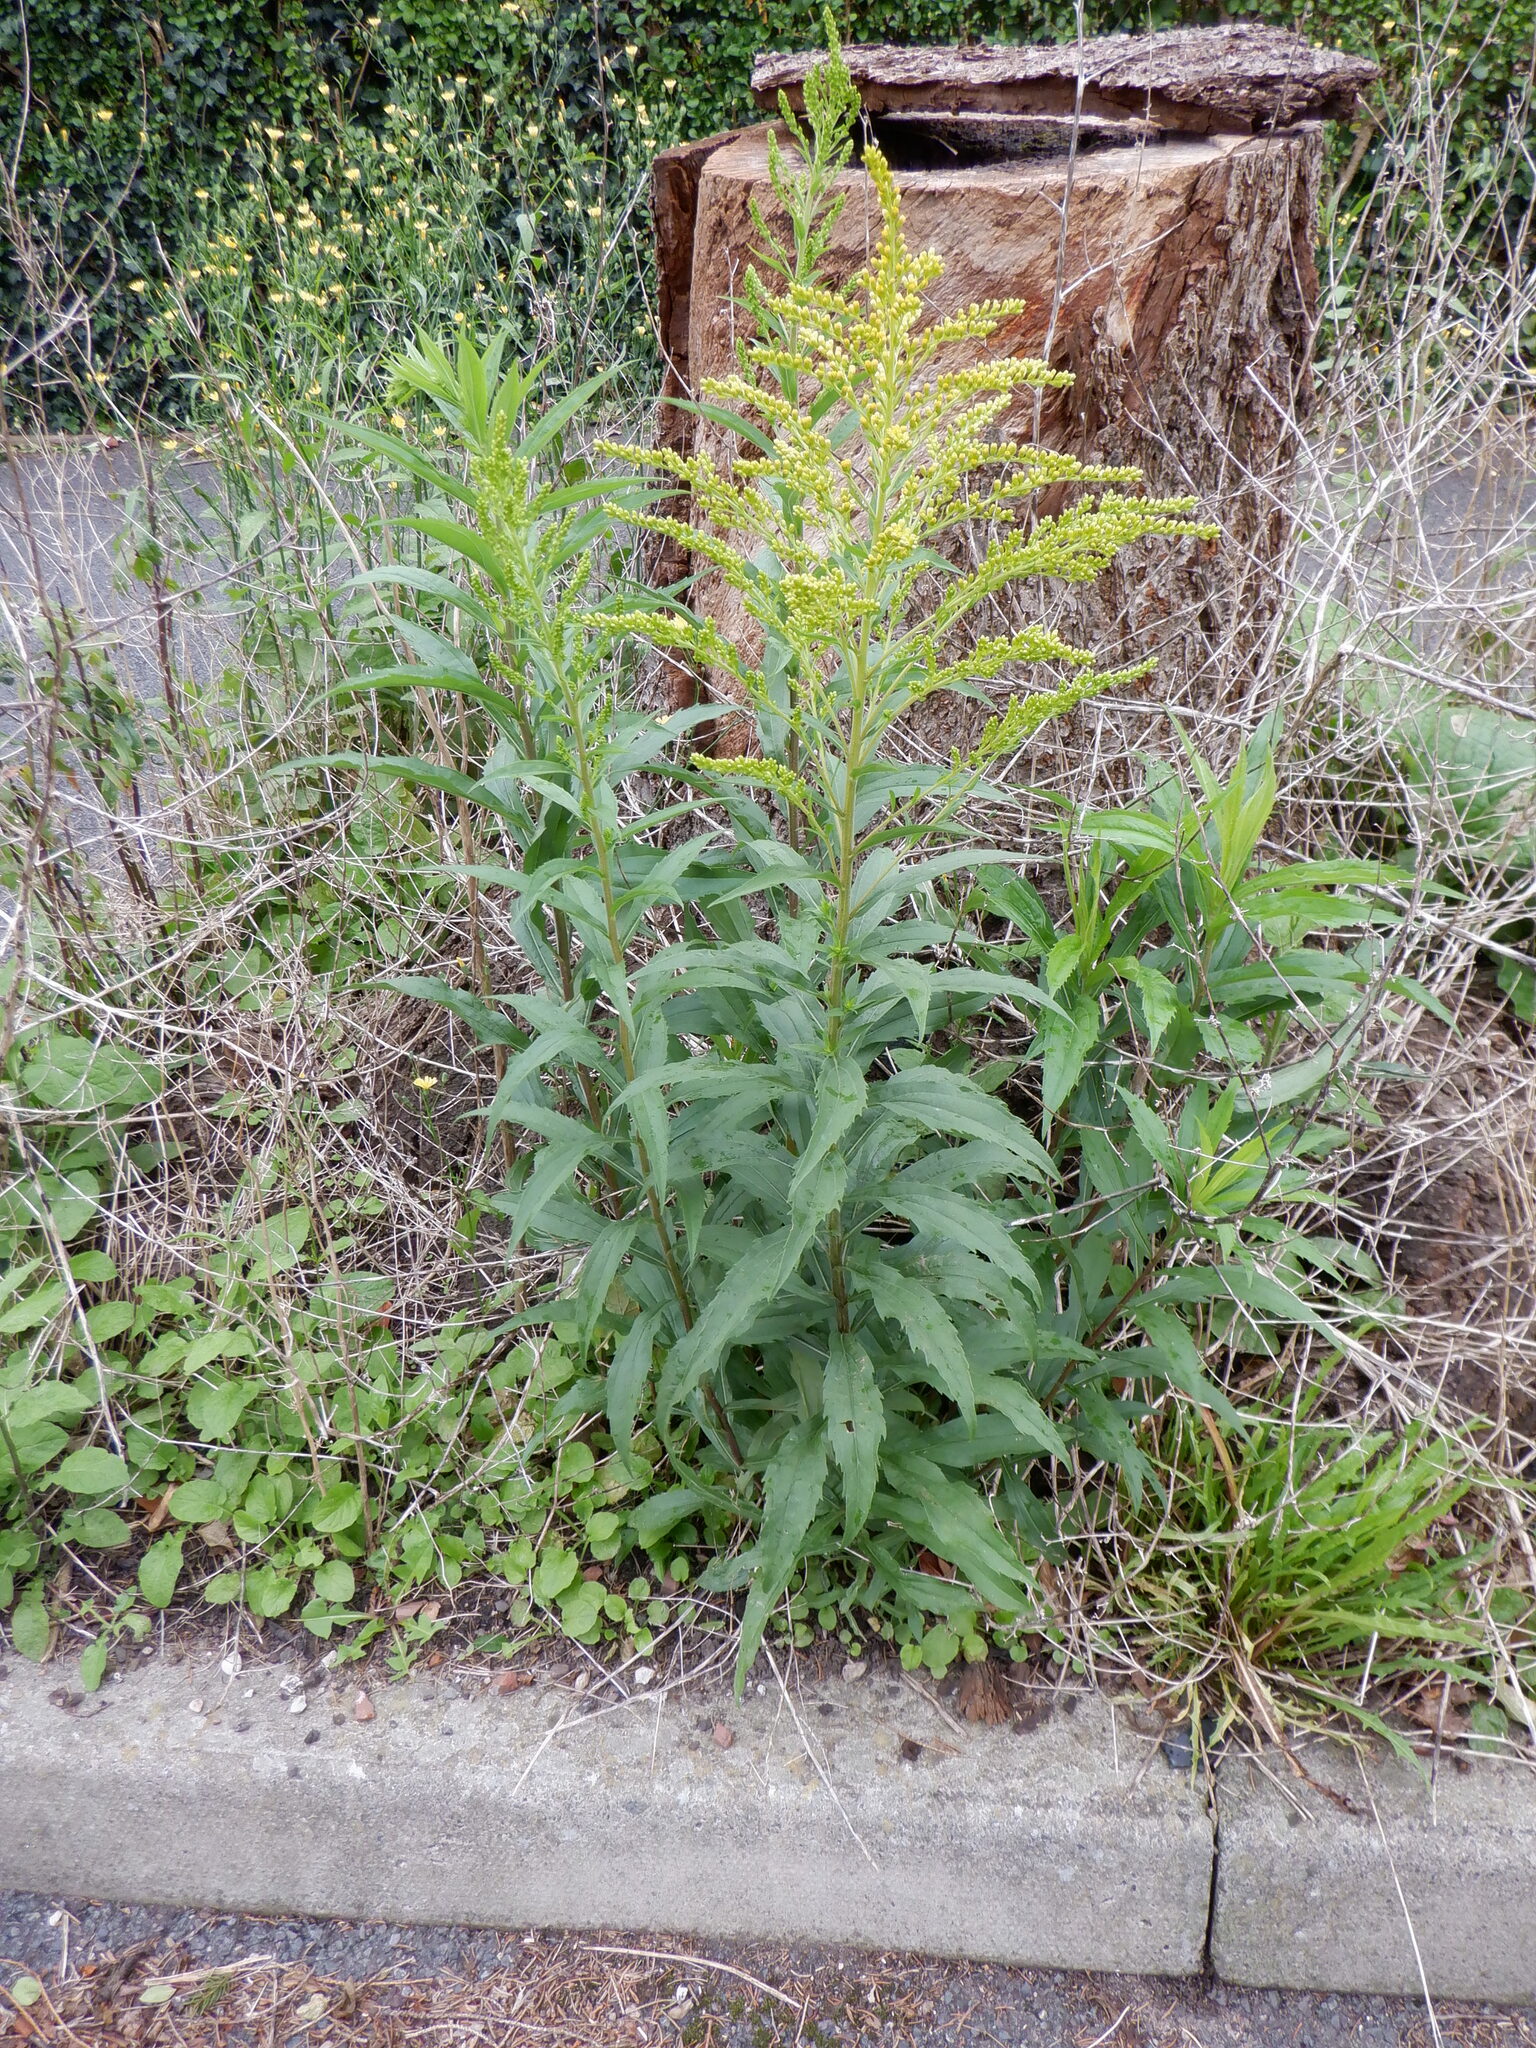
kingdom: Plantae
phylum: Tracheophyta
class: Magnoliopsida
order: Asterales
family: Asteraceae
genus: Solidago
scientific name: Solidago canadensis
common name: Canada goldenrod
